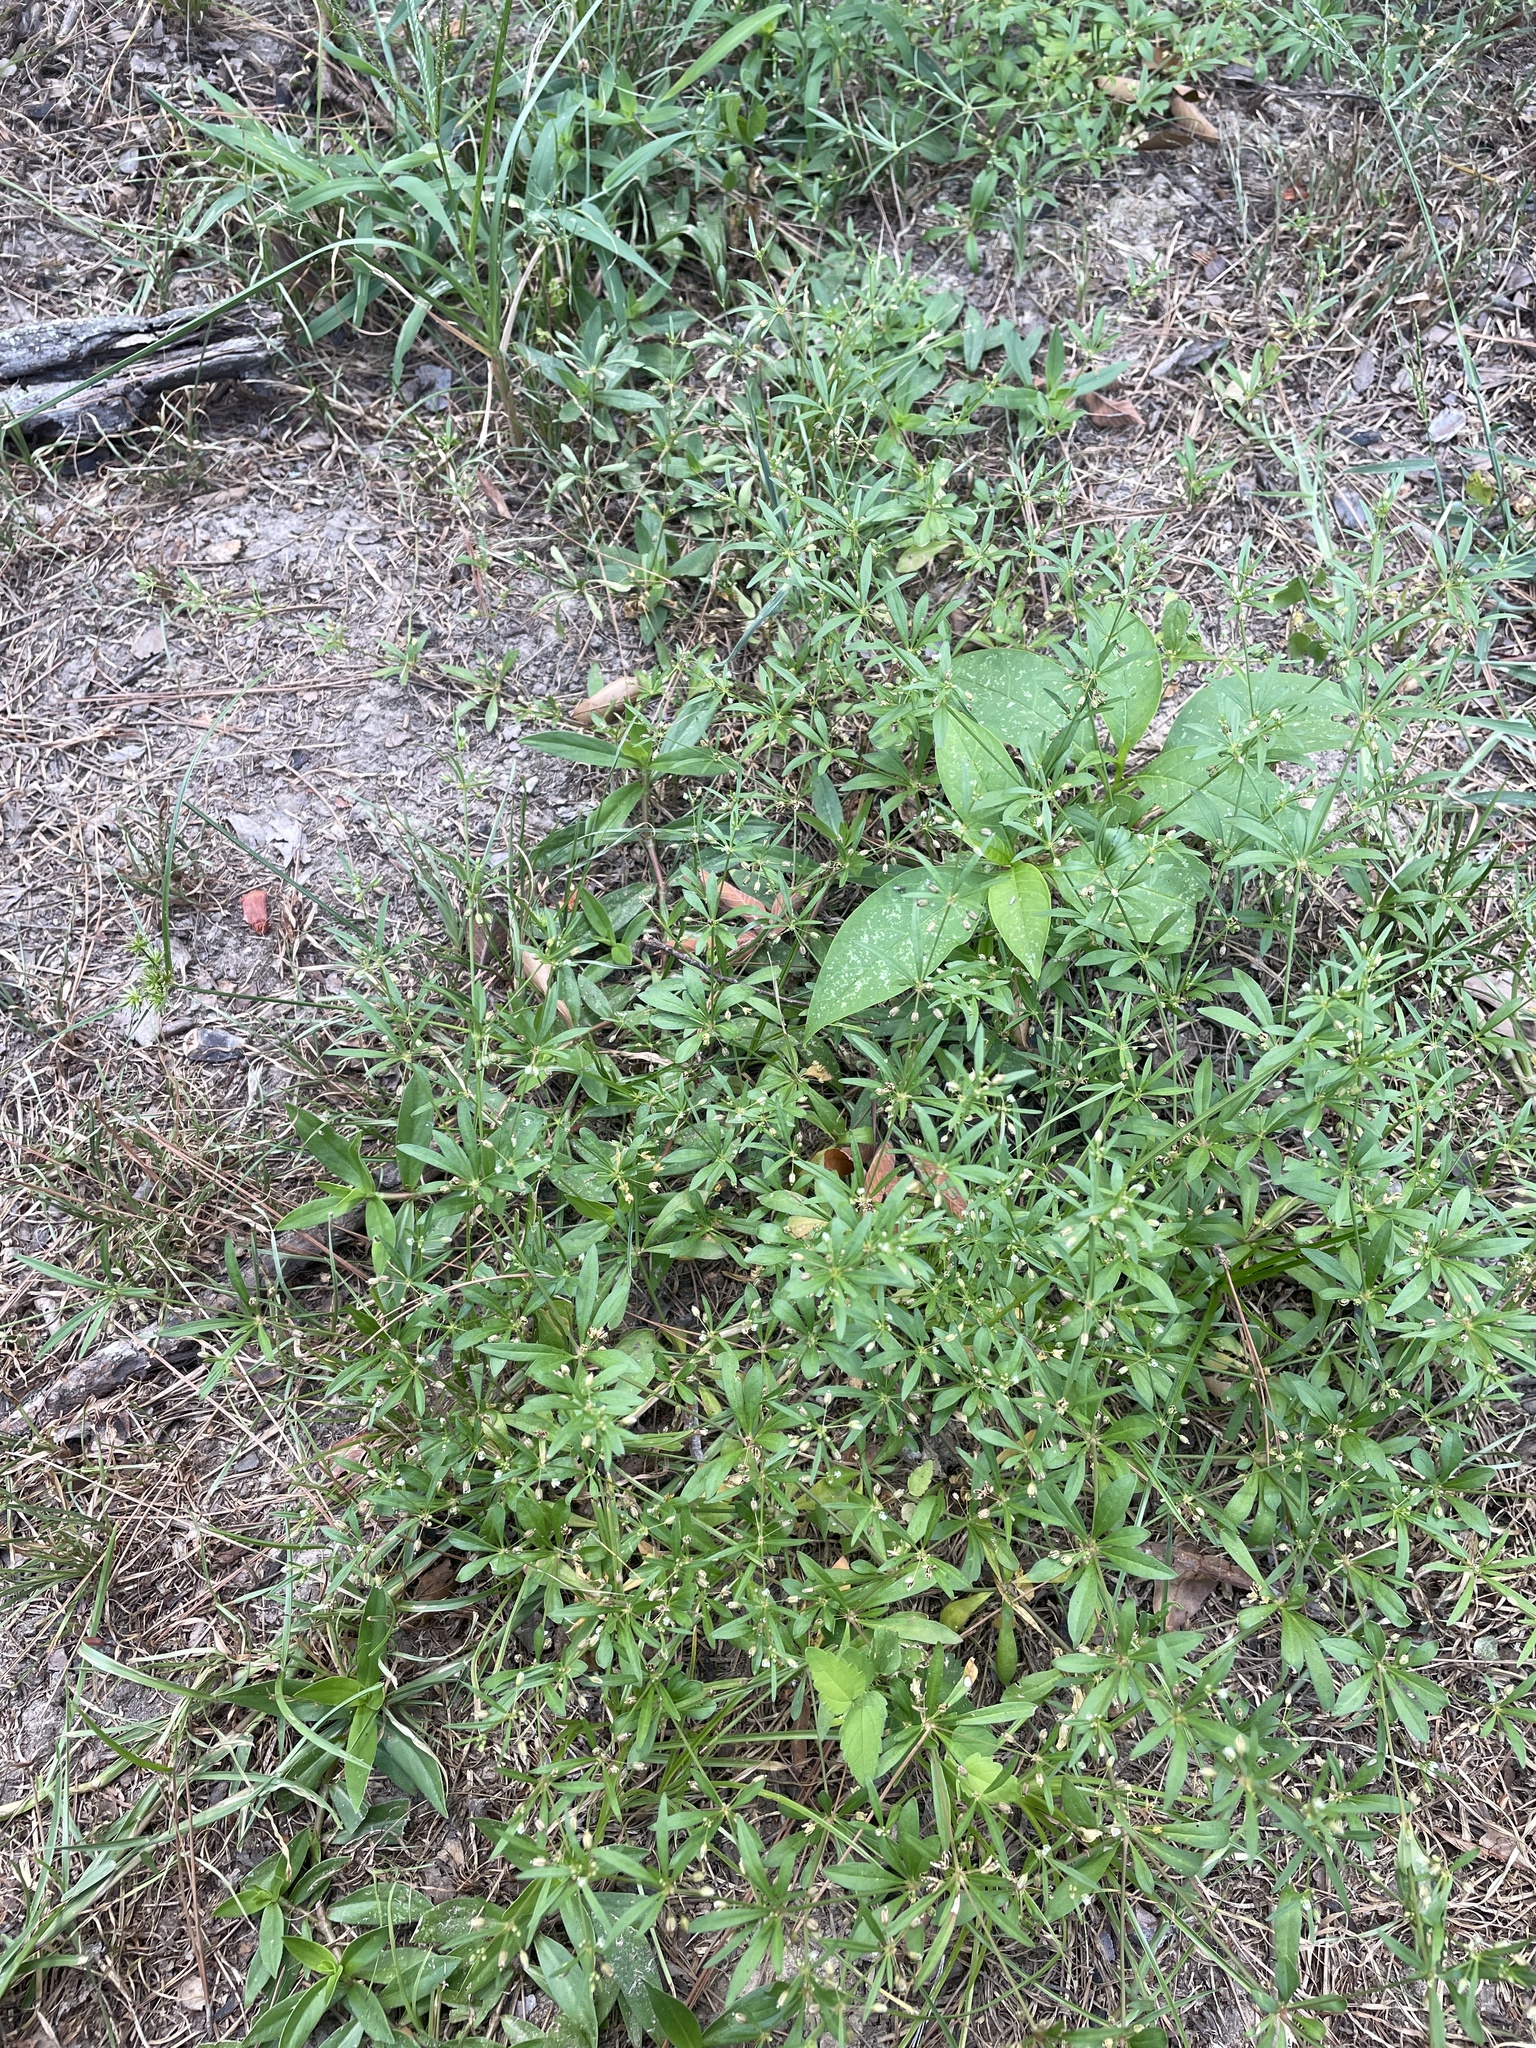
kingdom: Plantae
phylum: Tracheophyta
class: Magnoliopsida
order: Caryophyllales
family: Molluginaceae
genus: Mollugo
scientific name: Mollugo verticillata
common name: Green carpetweed
